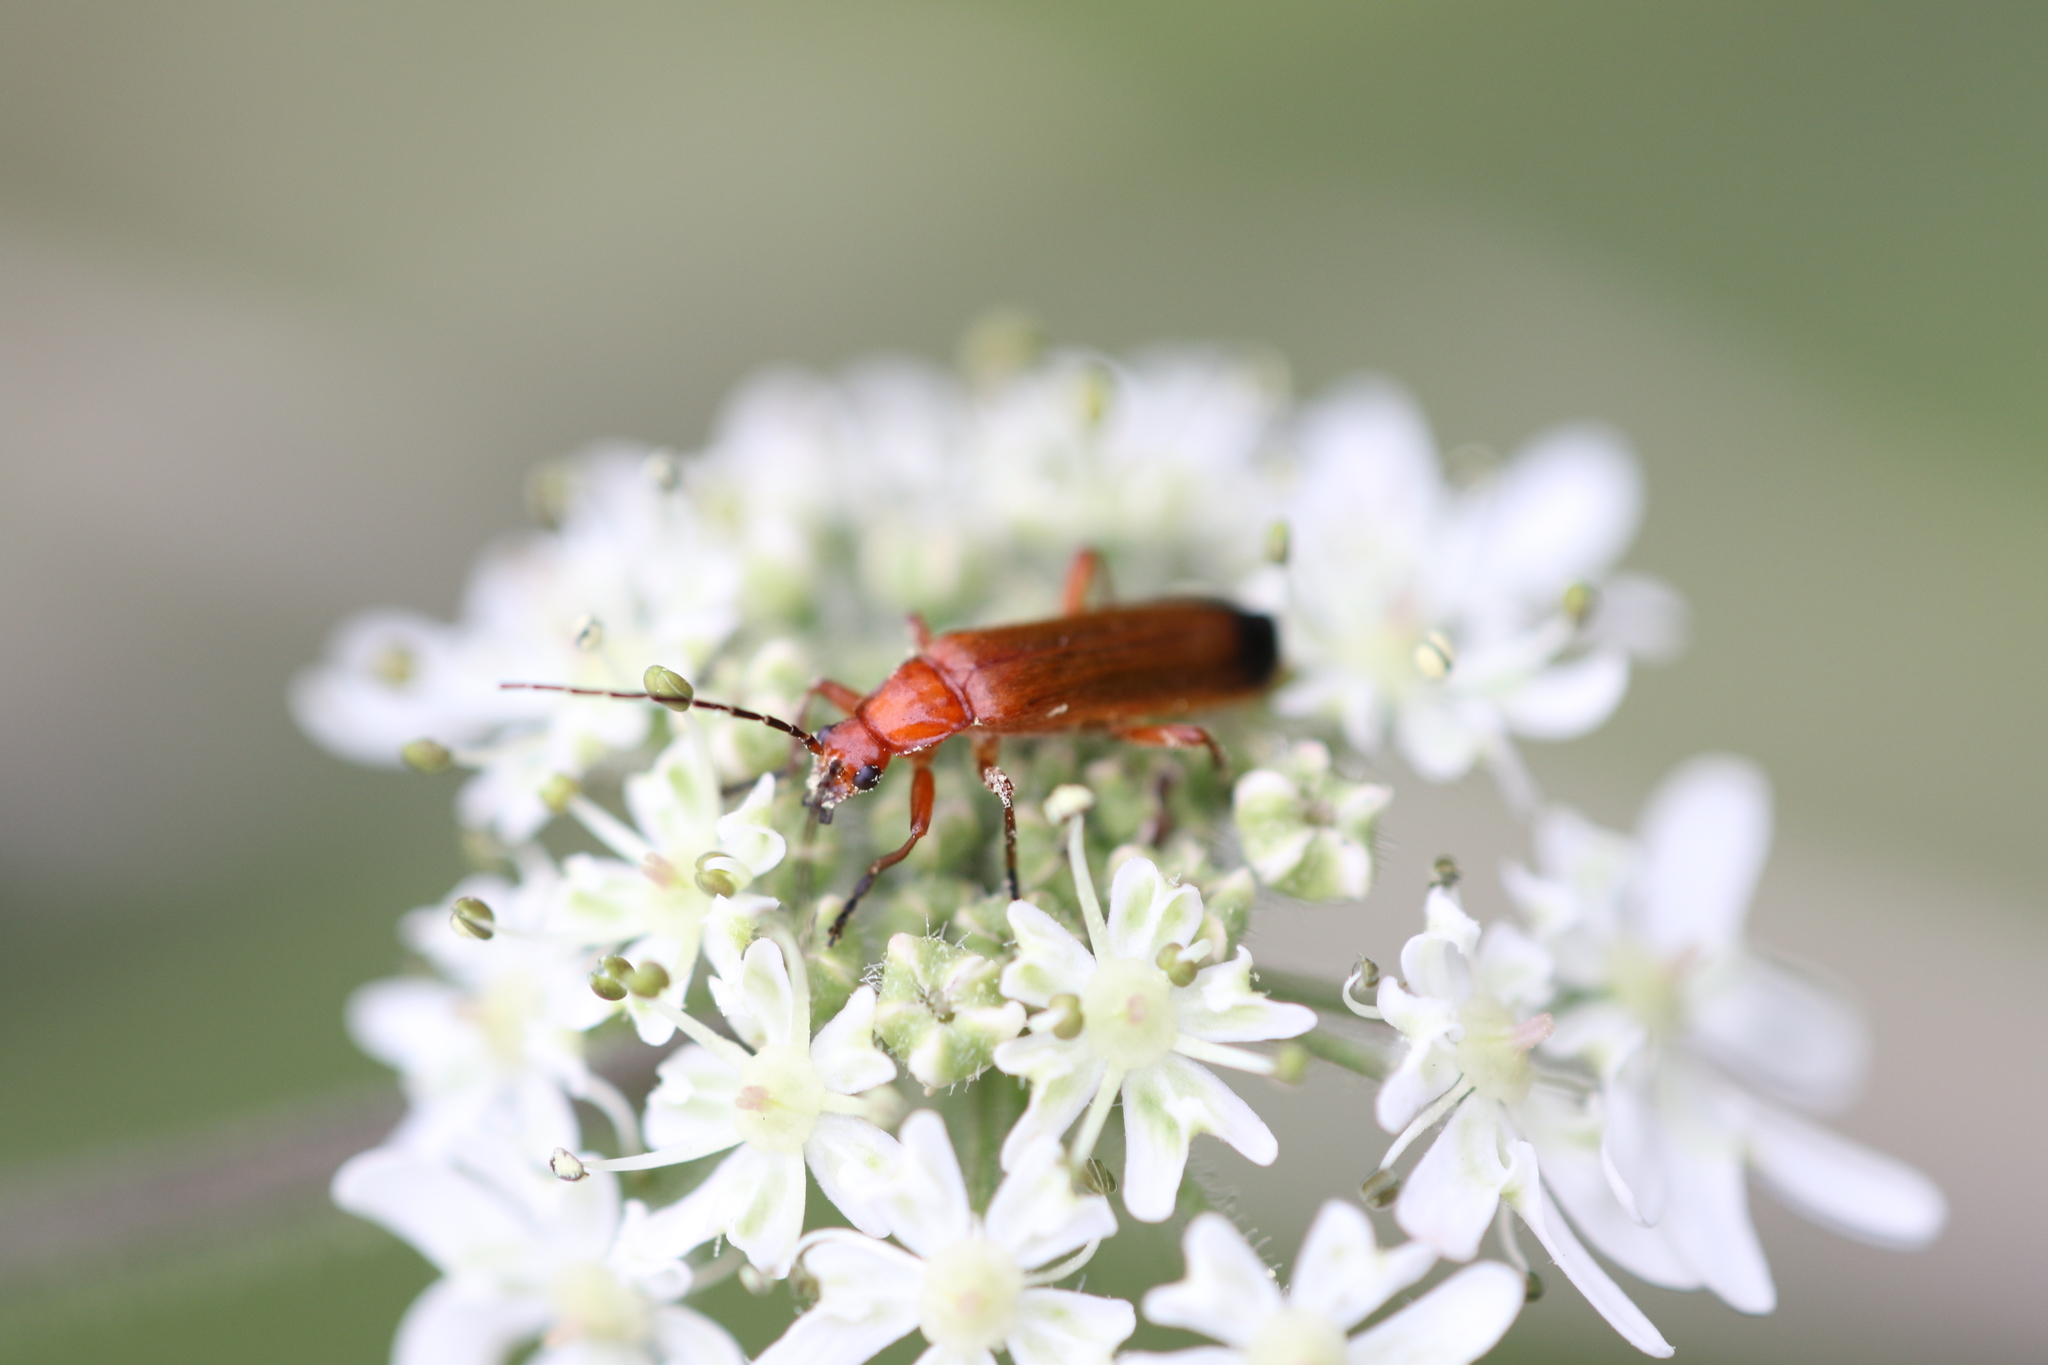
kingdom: Animalia
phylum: Arthropoda
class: Insecta
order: Coleoptera
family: Cantharidae
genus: Rhagonycha
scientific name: Rhagonycha fulva
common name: Common red soldier beetle
